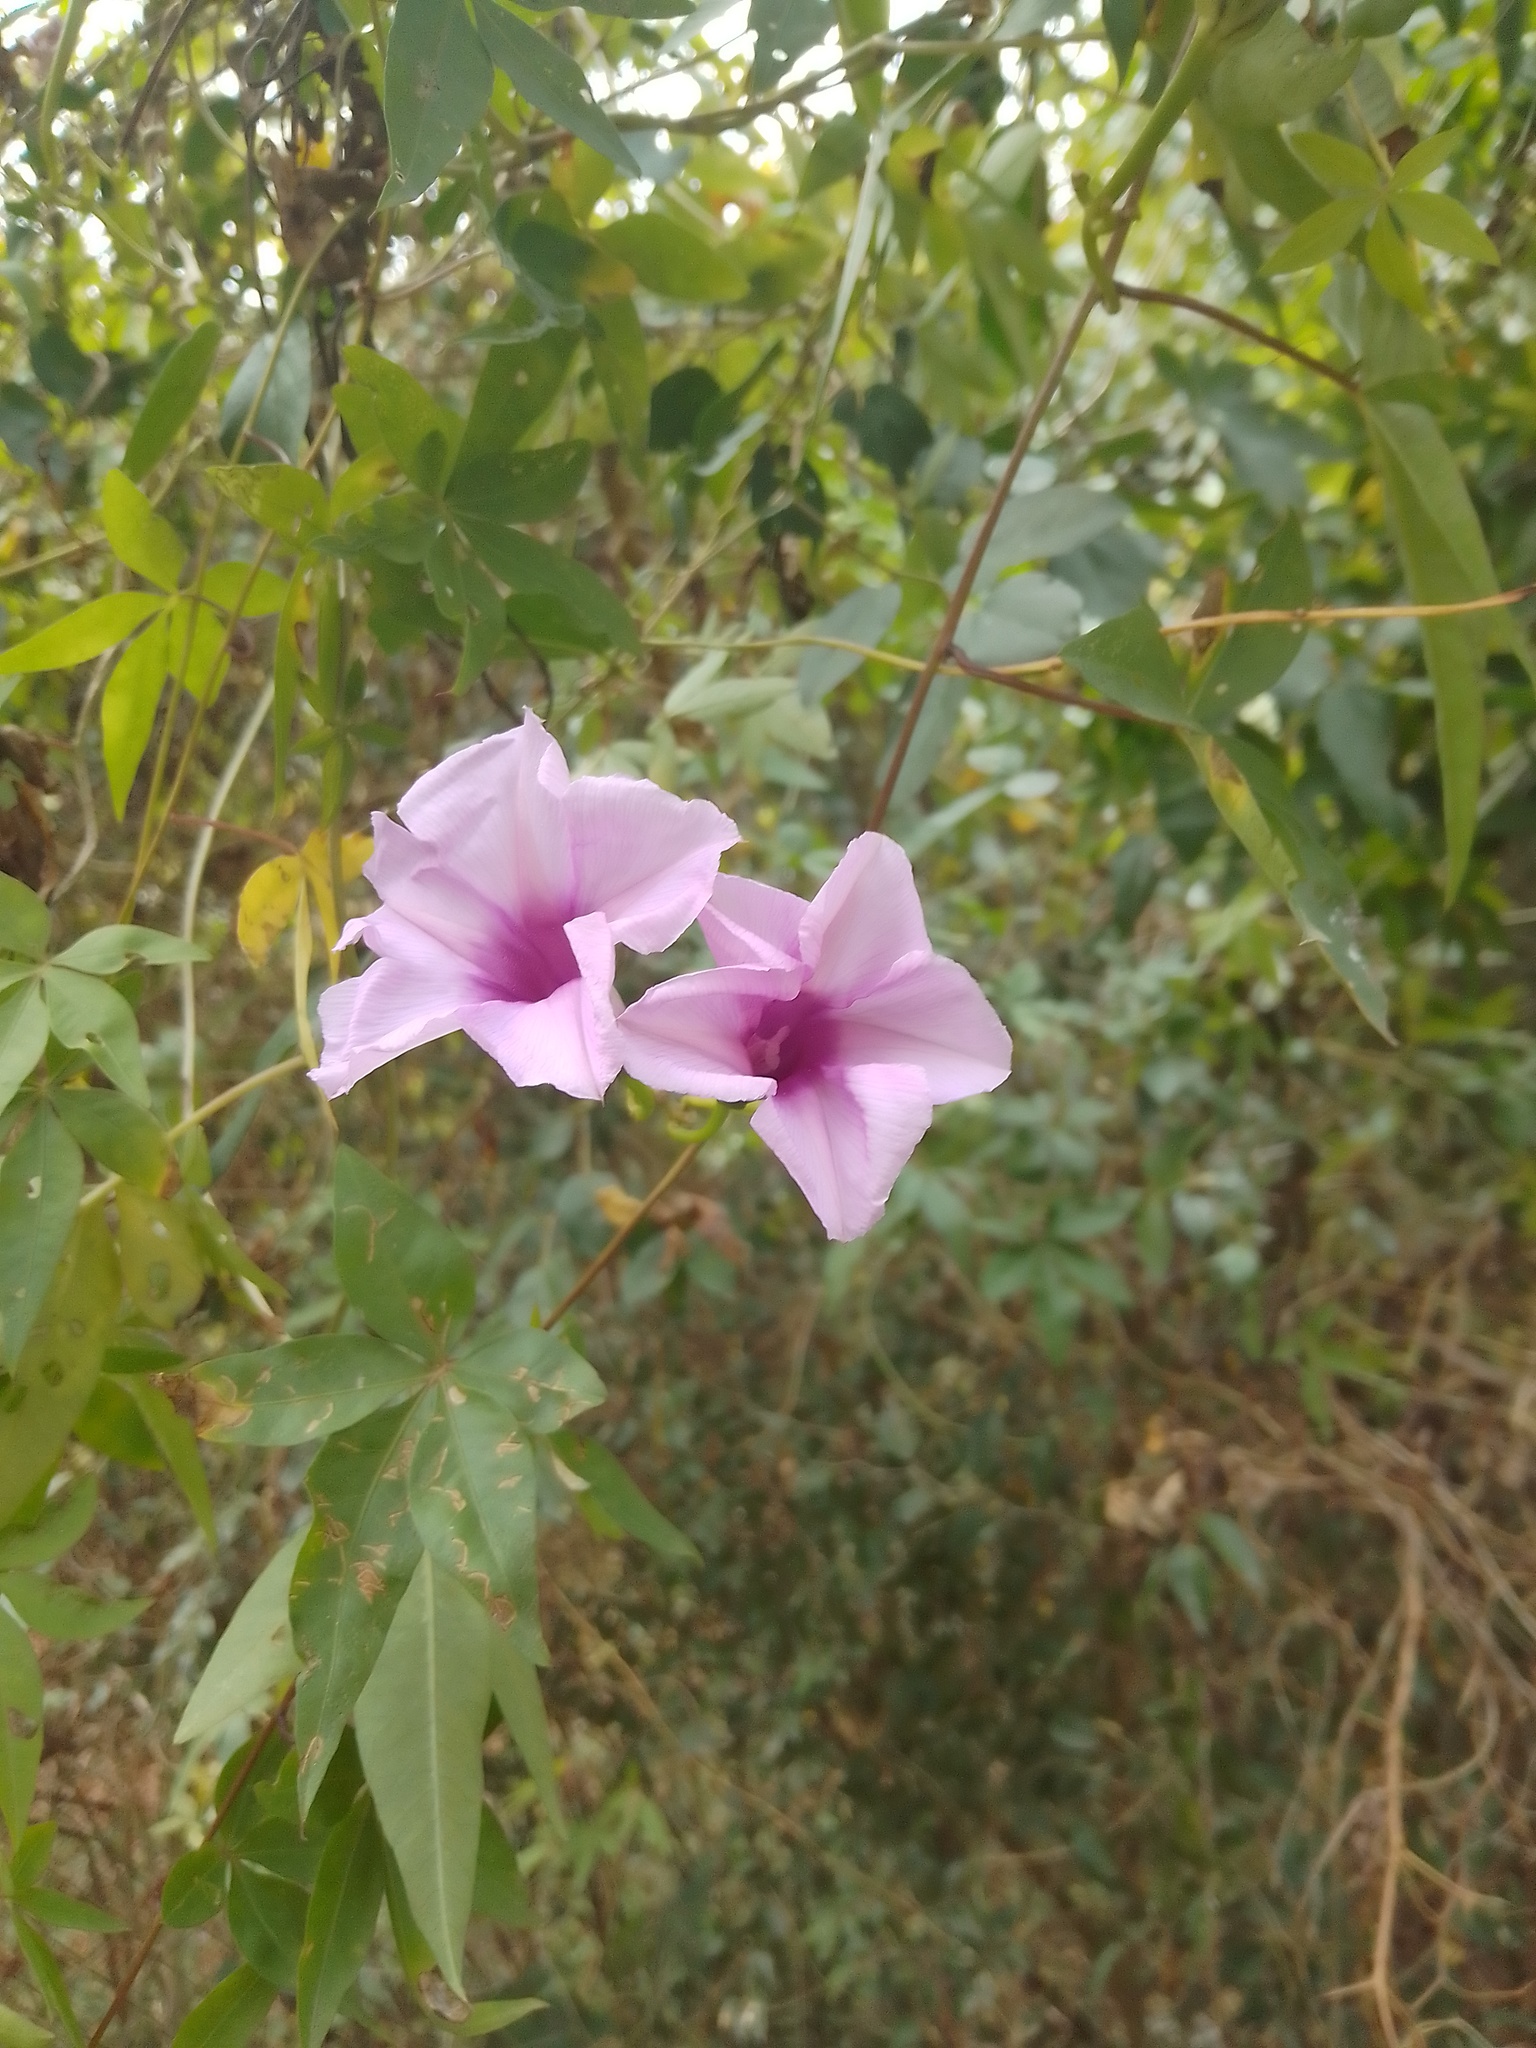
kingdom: Plantae
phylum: Tracheophyta
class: Magnoliopsida
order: Solanales
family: Convolvulaceae
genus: Ipomoea
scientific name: Ipomoea cairica
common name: Mile a minute vine
